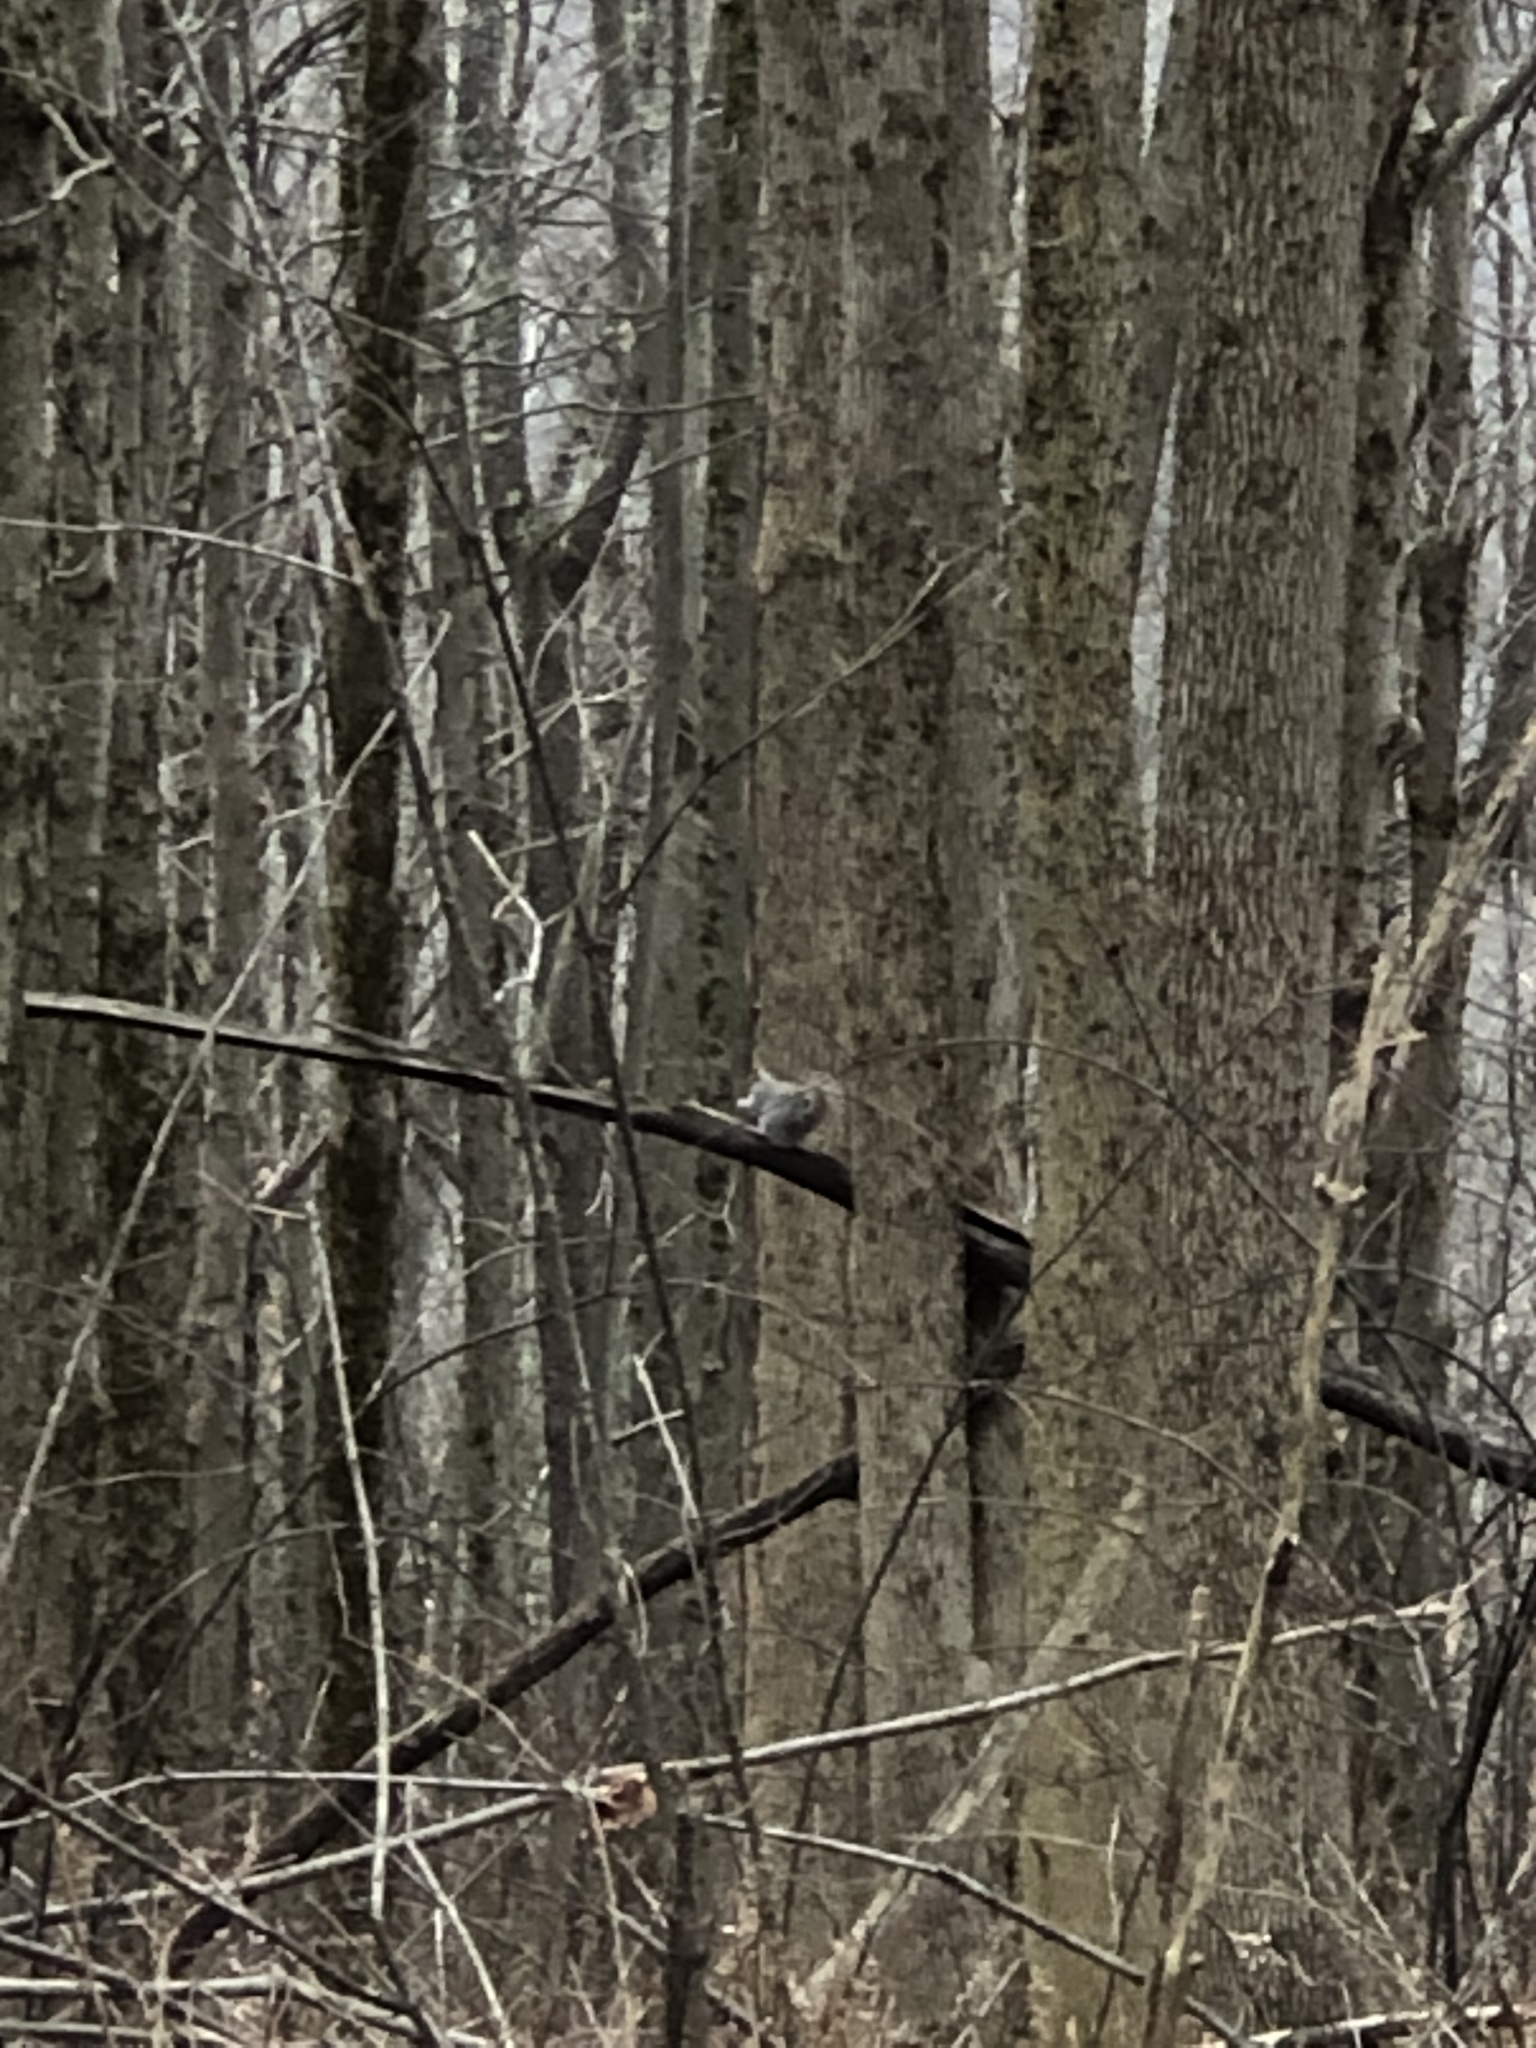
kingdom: Animalia
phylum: Chordata
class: Mammalia
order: Rodentia
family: Sciuridae
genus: Sciurus
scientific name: Sciurus carolinensis
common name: Eastern gray squirrel
